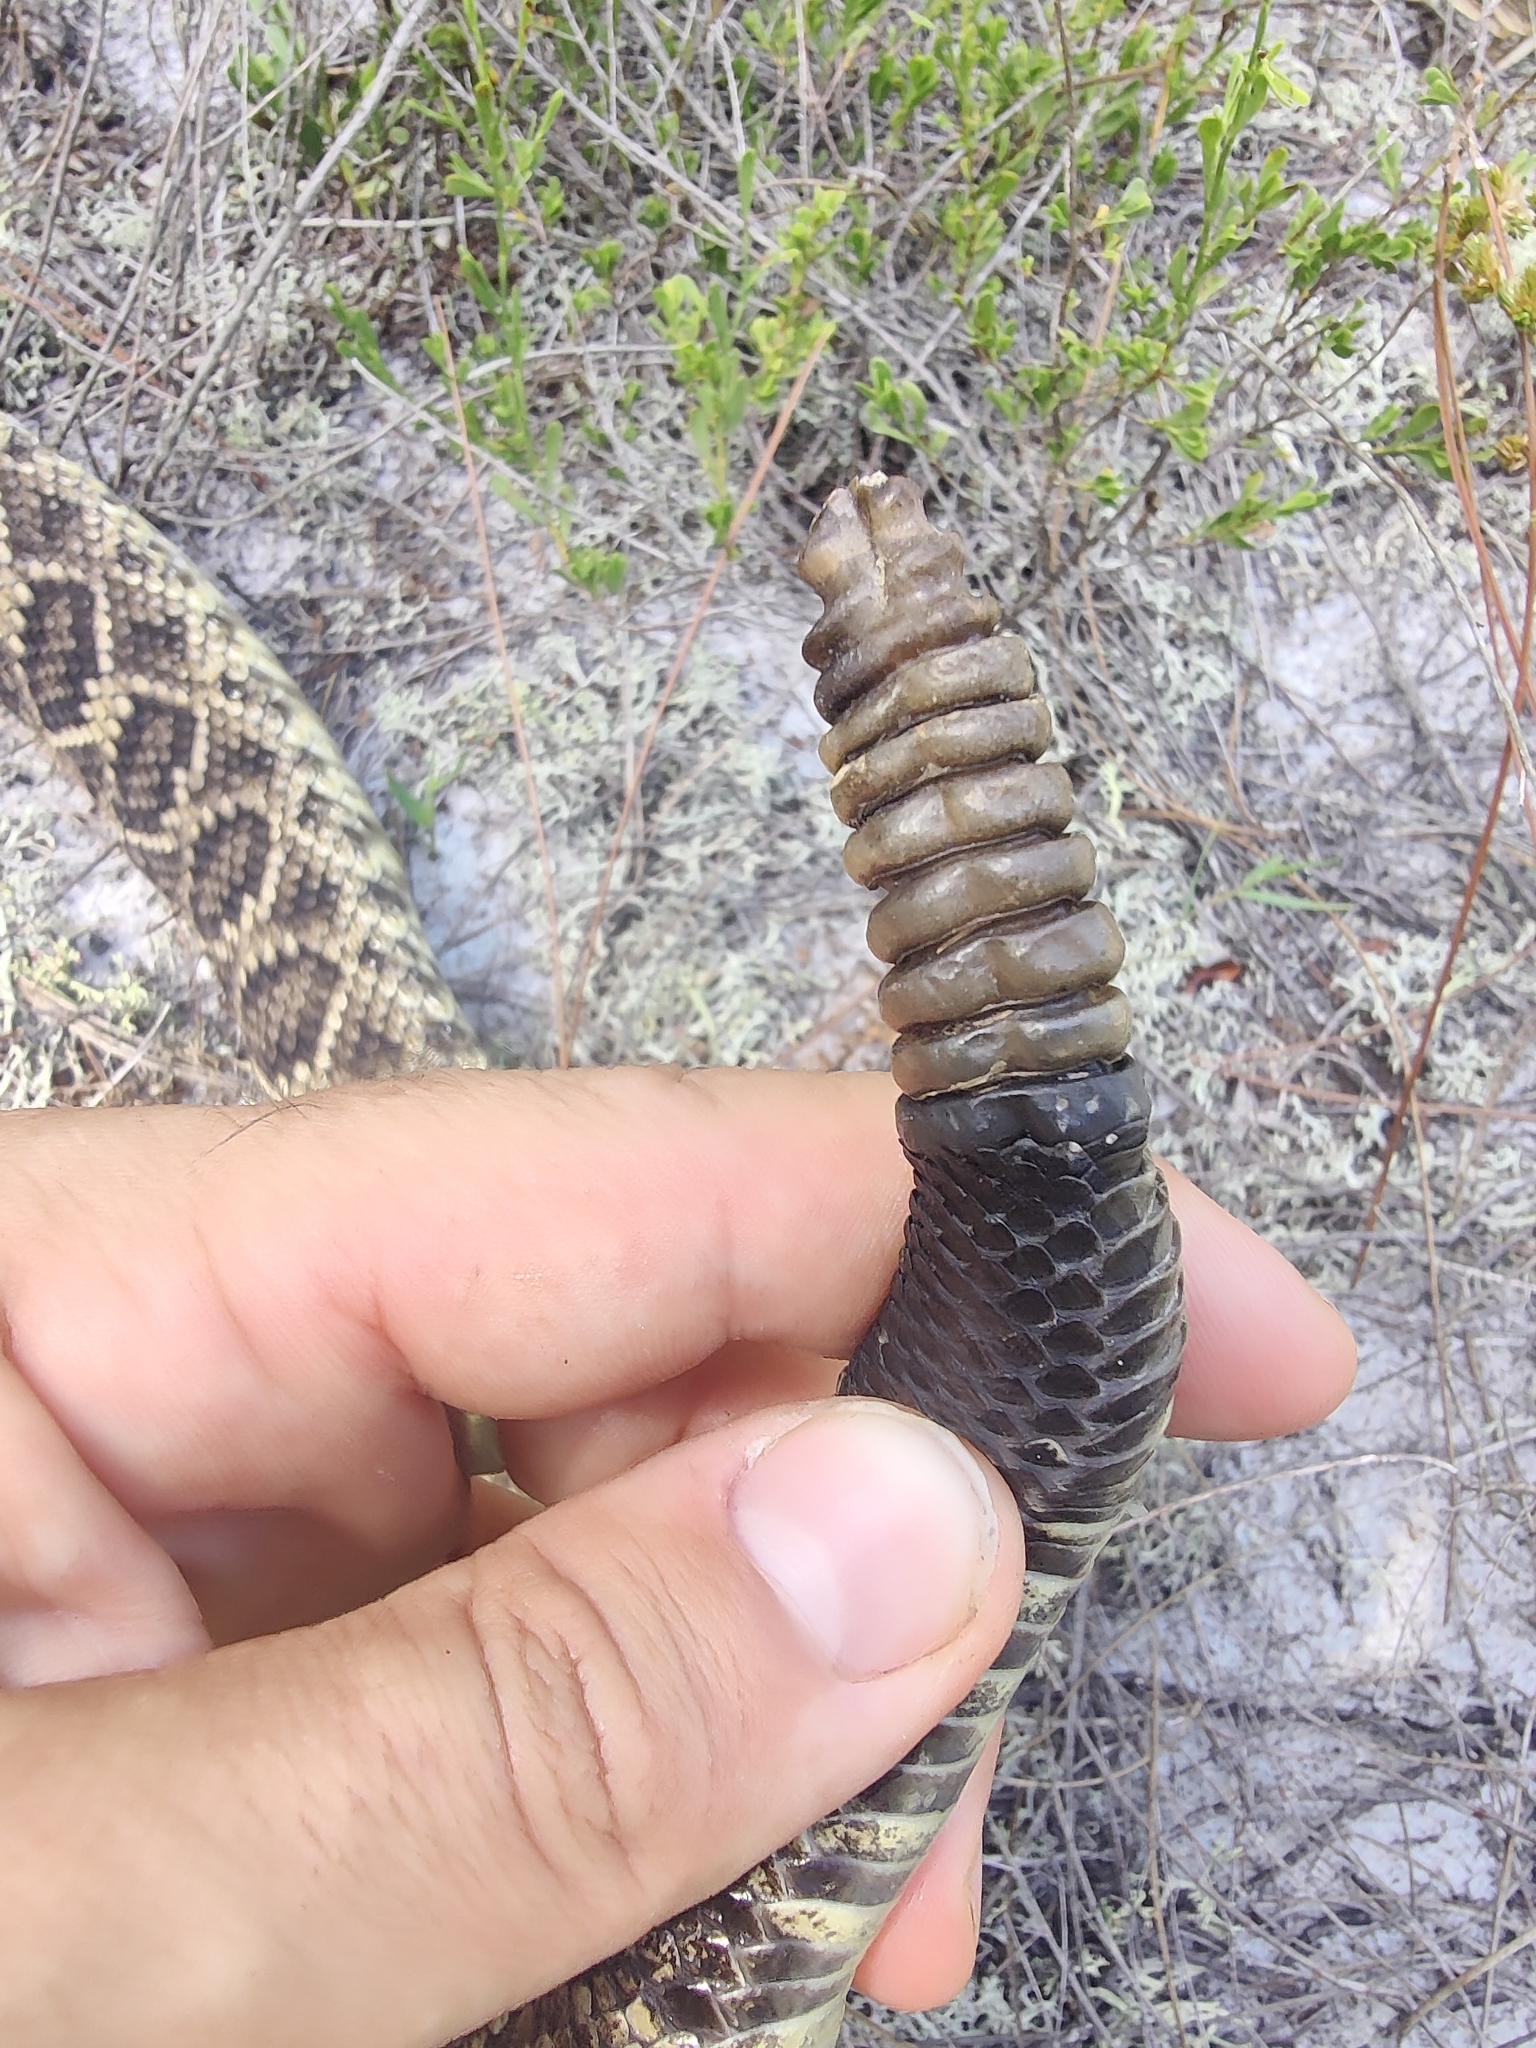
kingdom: Animalia
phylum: Chordata
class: Squamata
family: Viperidae
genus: Crotalus
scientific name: Crotalus adamanteus
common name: Eastern diamondback rattlesnake
